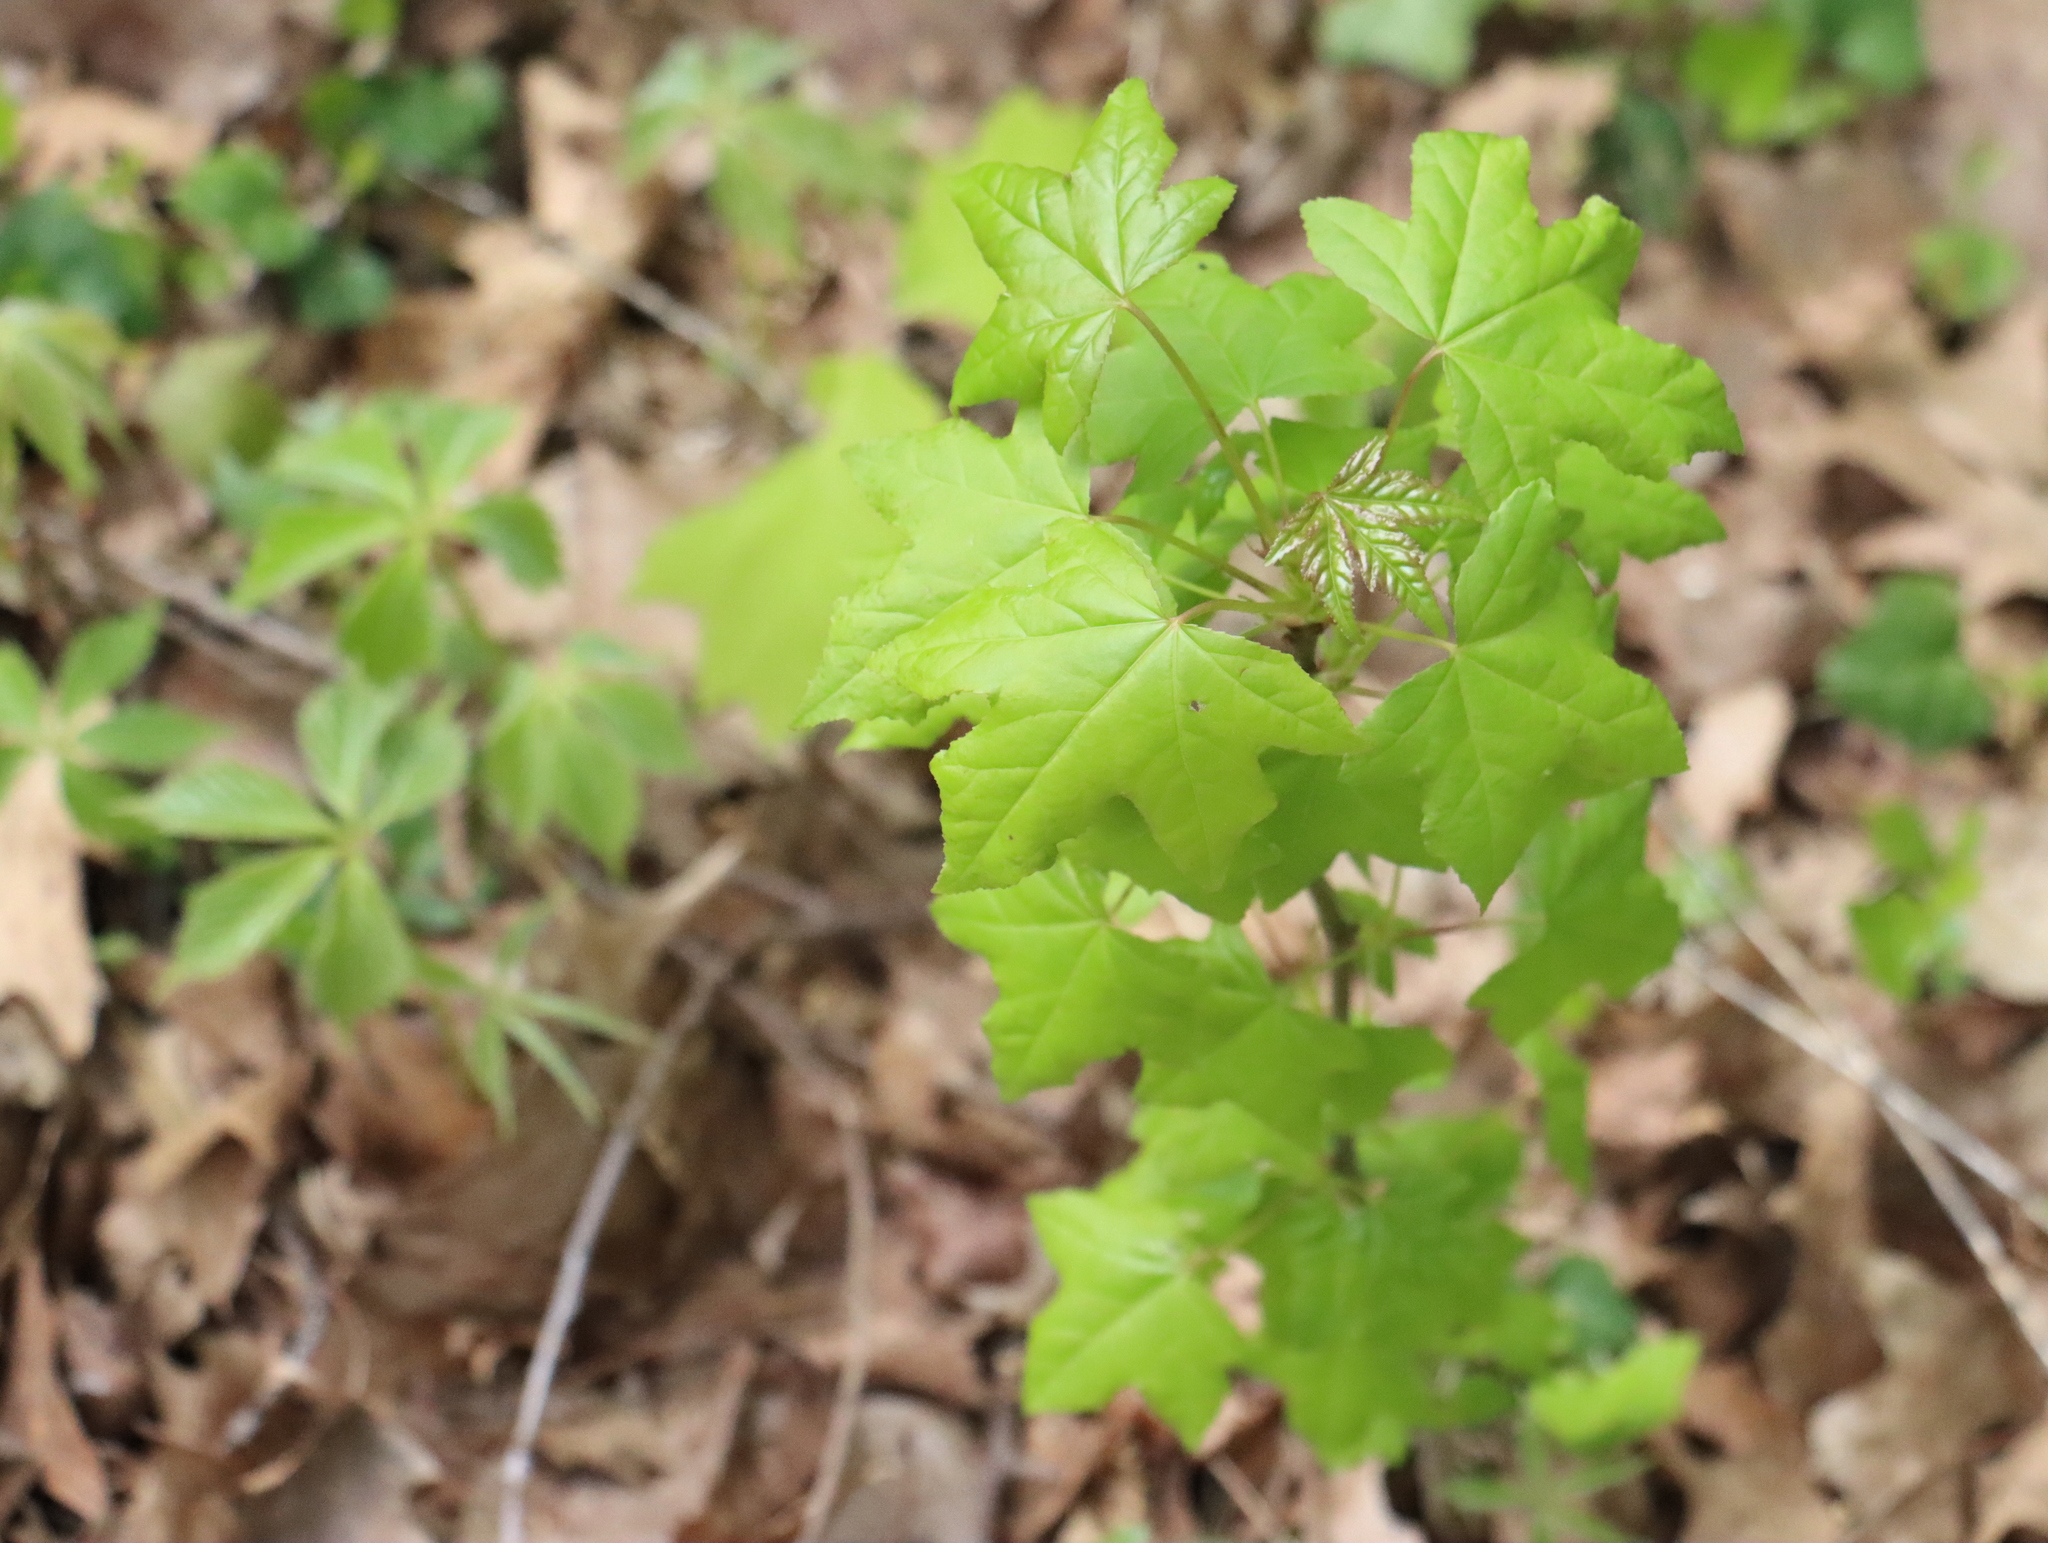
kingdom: Plantae
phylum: Tracheophyta
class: Magnoliopsida
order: Saxifragales
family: Altingiaceae
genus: Liquidambar
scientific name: Liquidambar styraciflua
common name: Sweet gum
